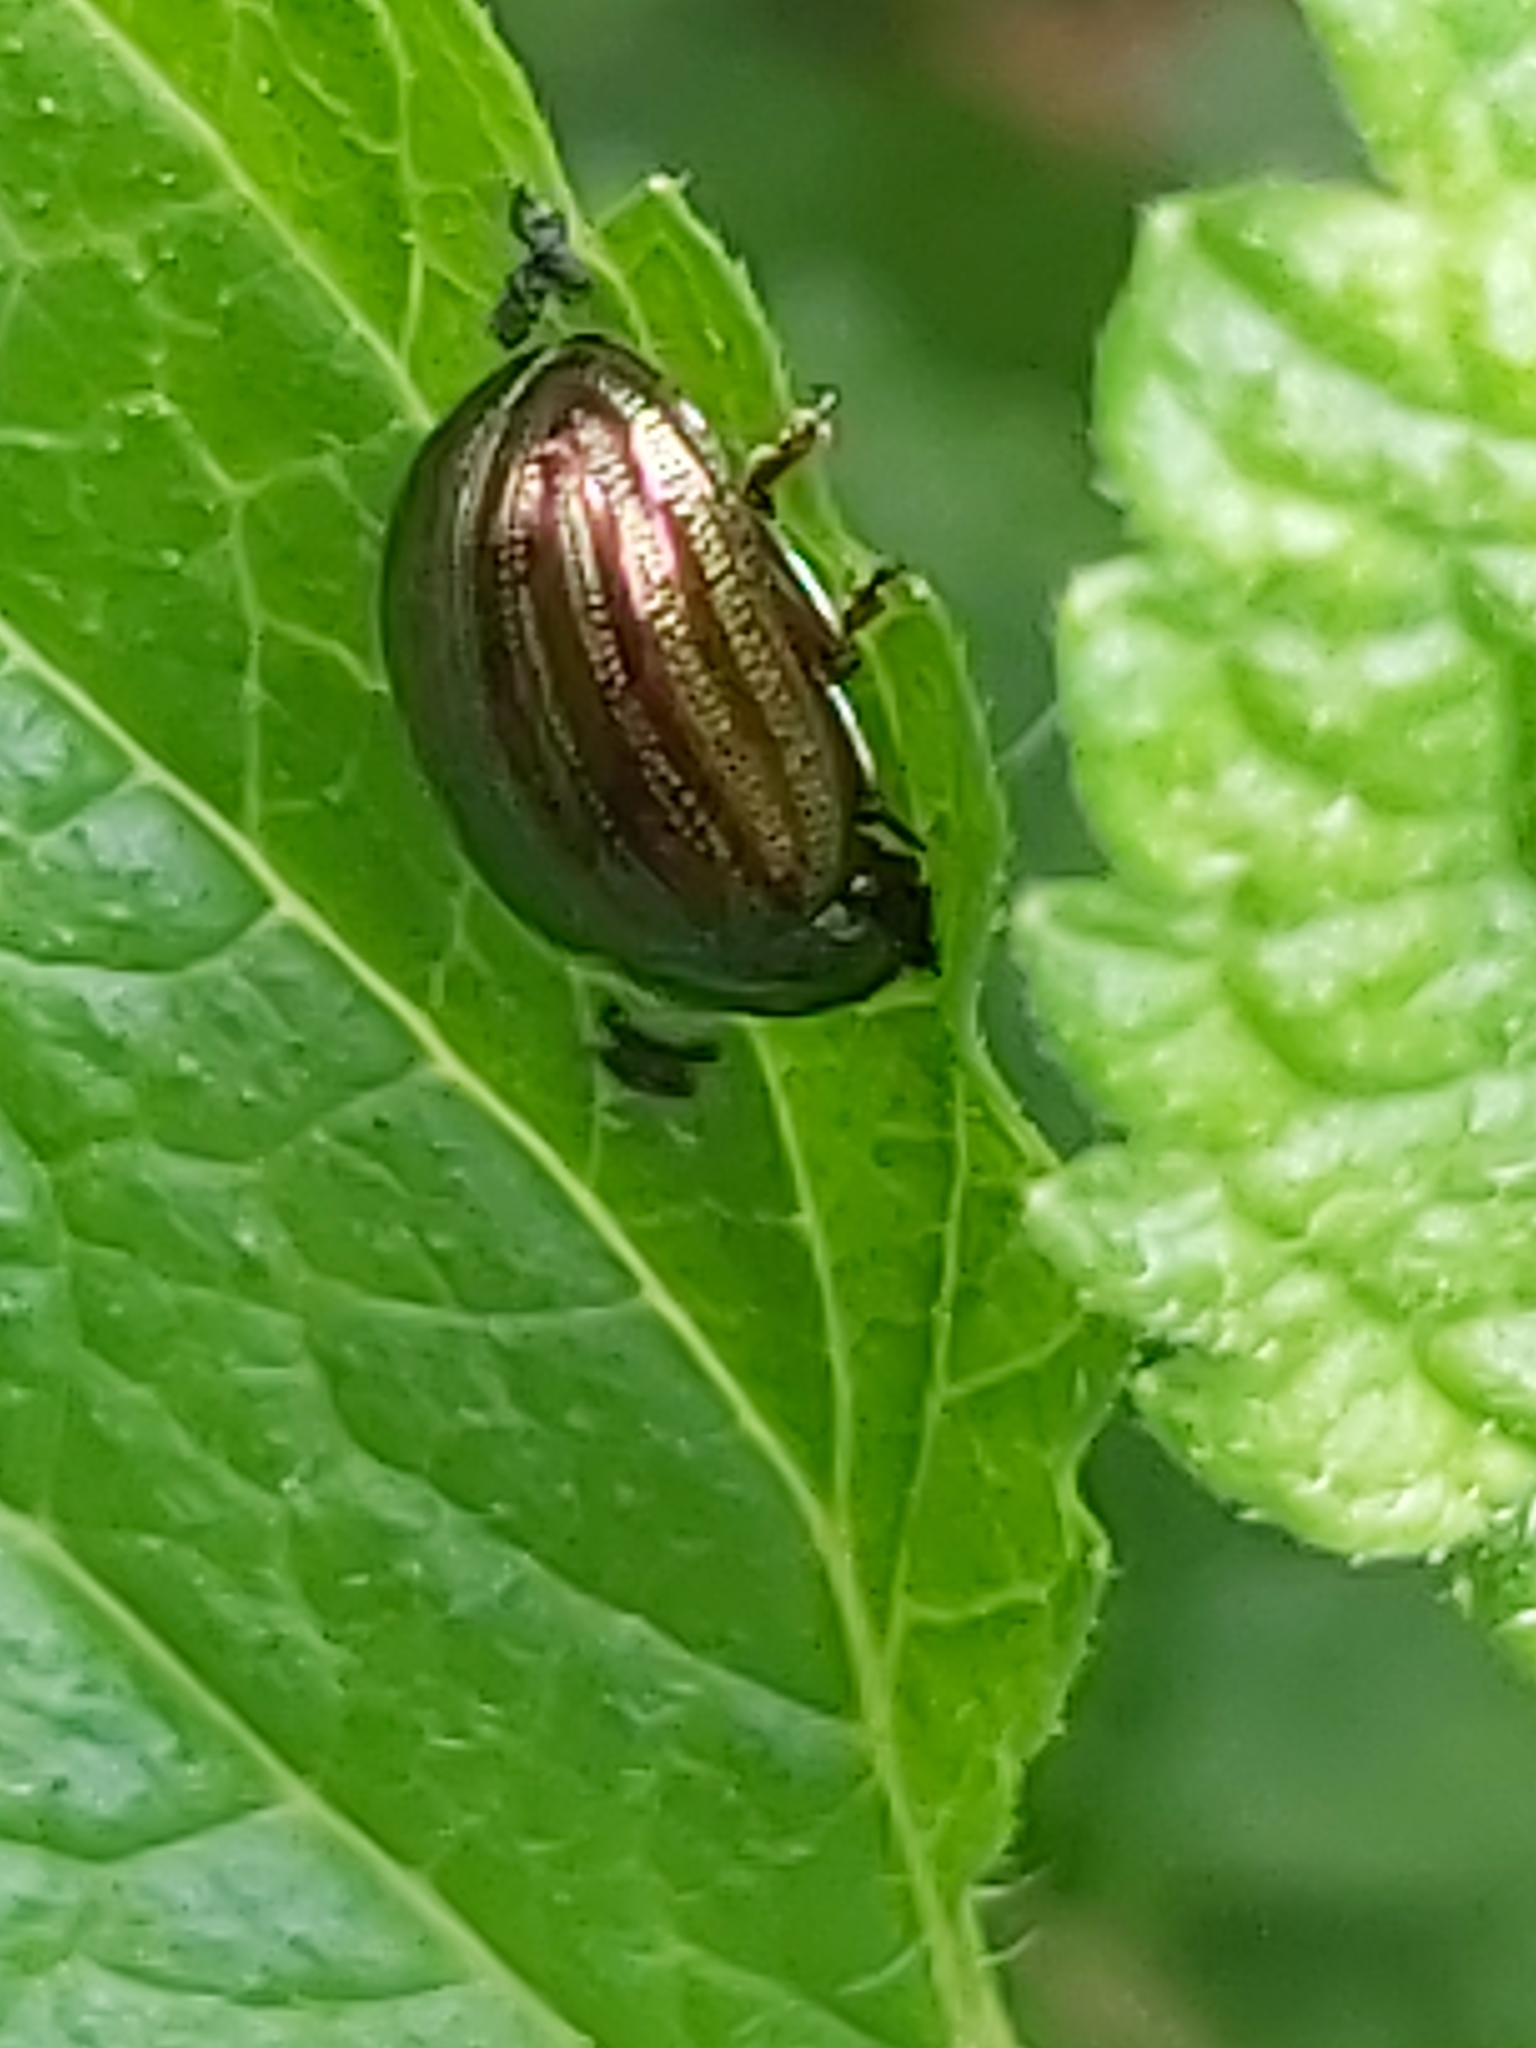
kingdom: Animalia
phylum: Arthropoda
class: Insecta
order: Coleoptera
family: Chrysomelidae
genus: Chrysolina
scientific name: Chrysolina americana
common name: Rosemary beetle
